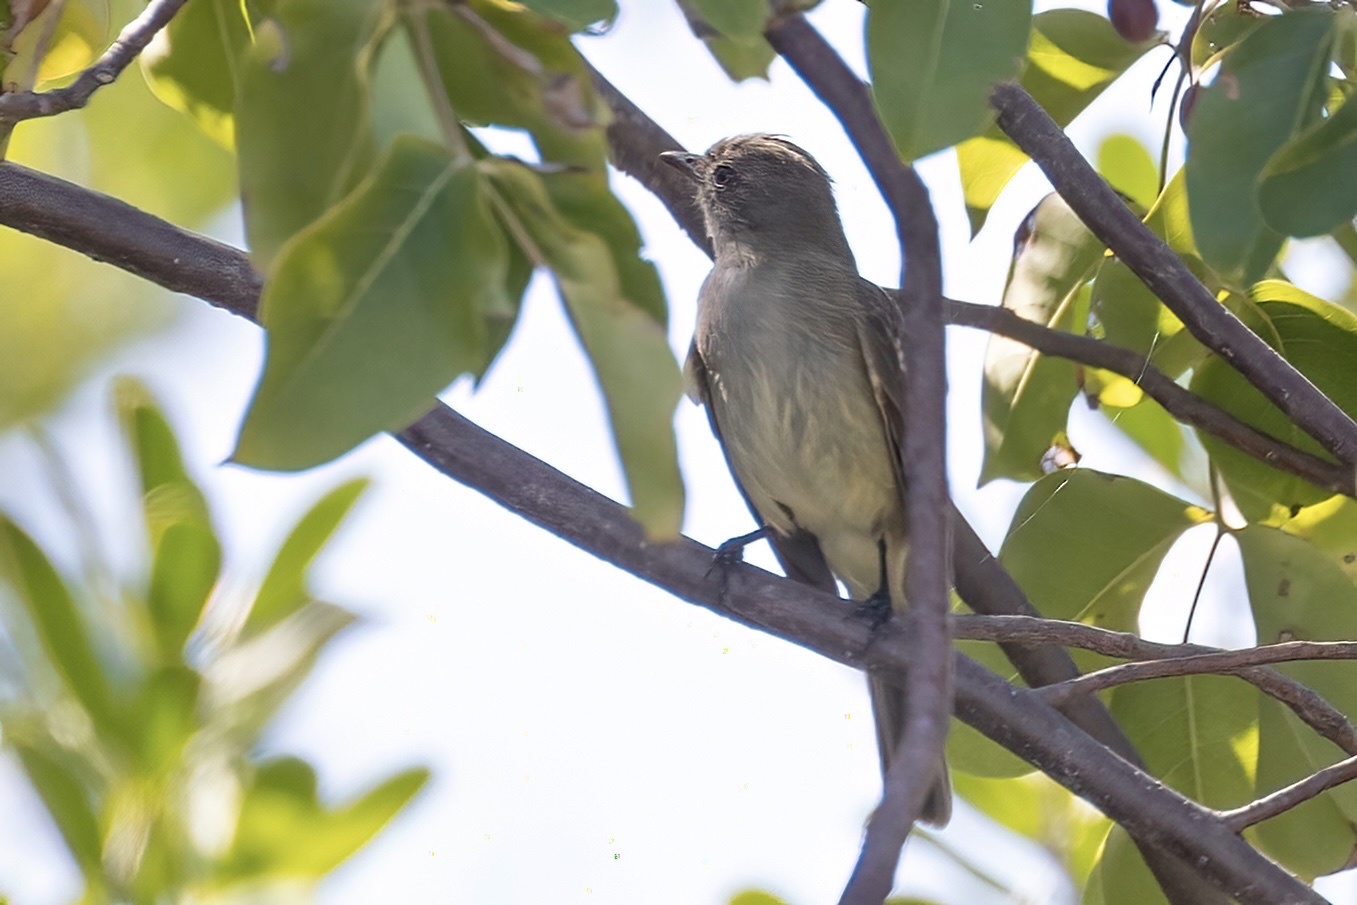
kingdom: Animalia
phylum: Chordata
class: Aves
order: Passeriformes
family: Tyrannidae
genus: Elaenia
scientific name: Elaenia martinica
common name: Caribbean elaenia
